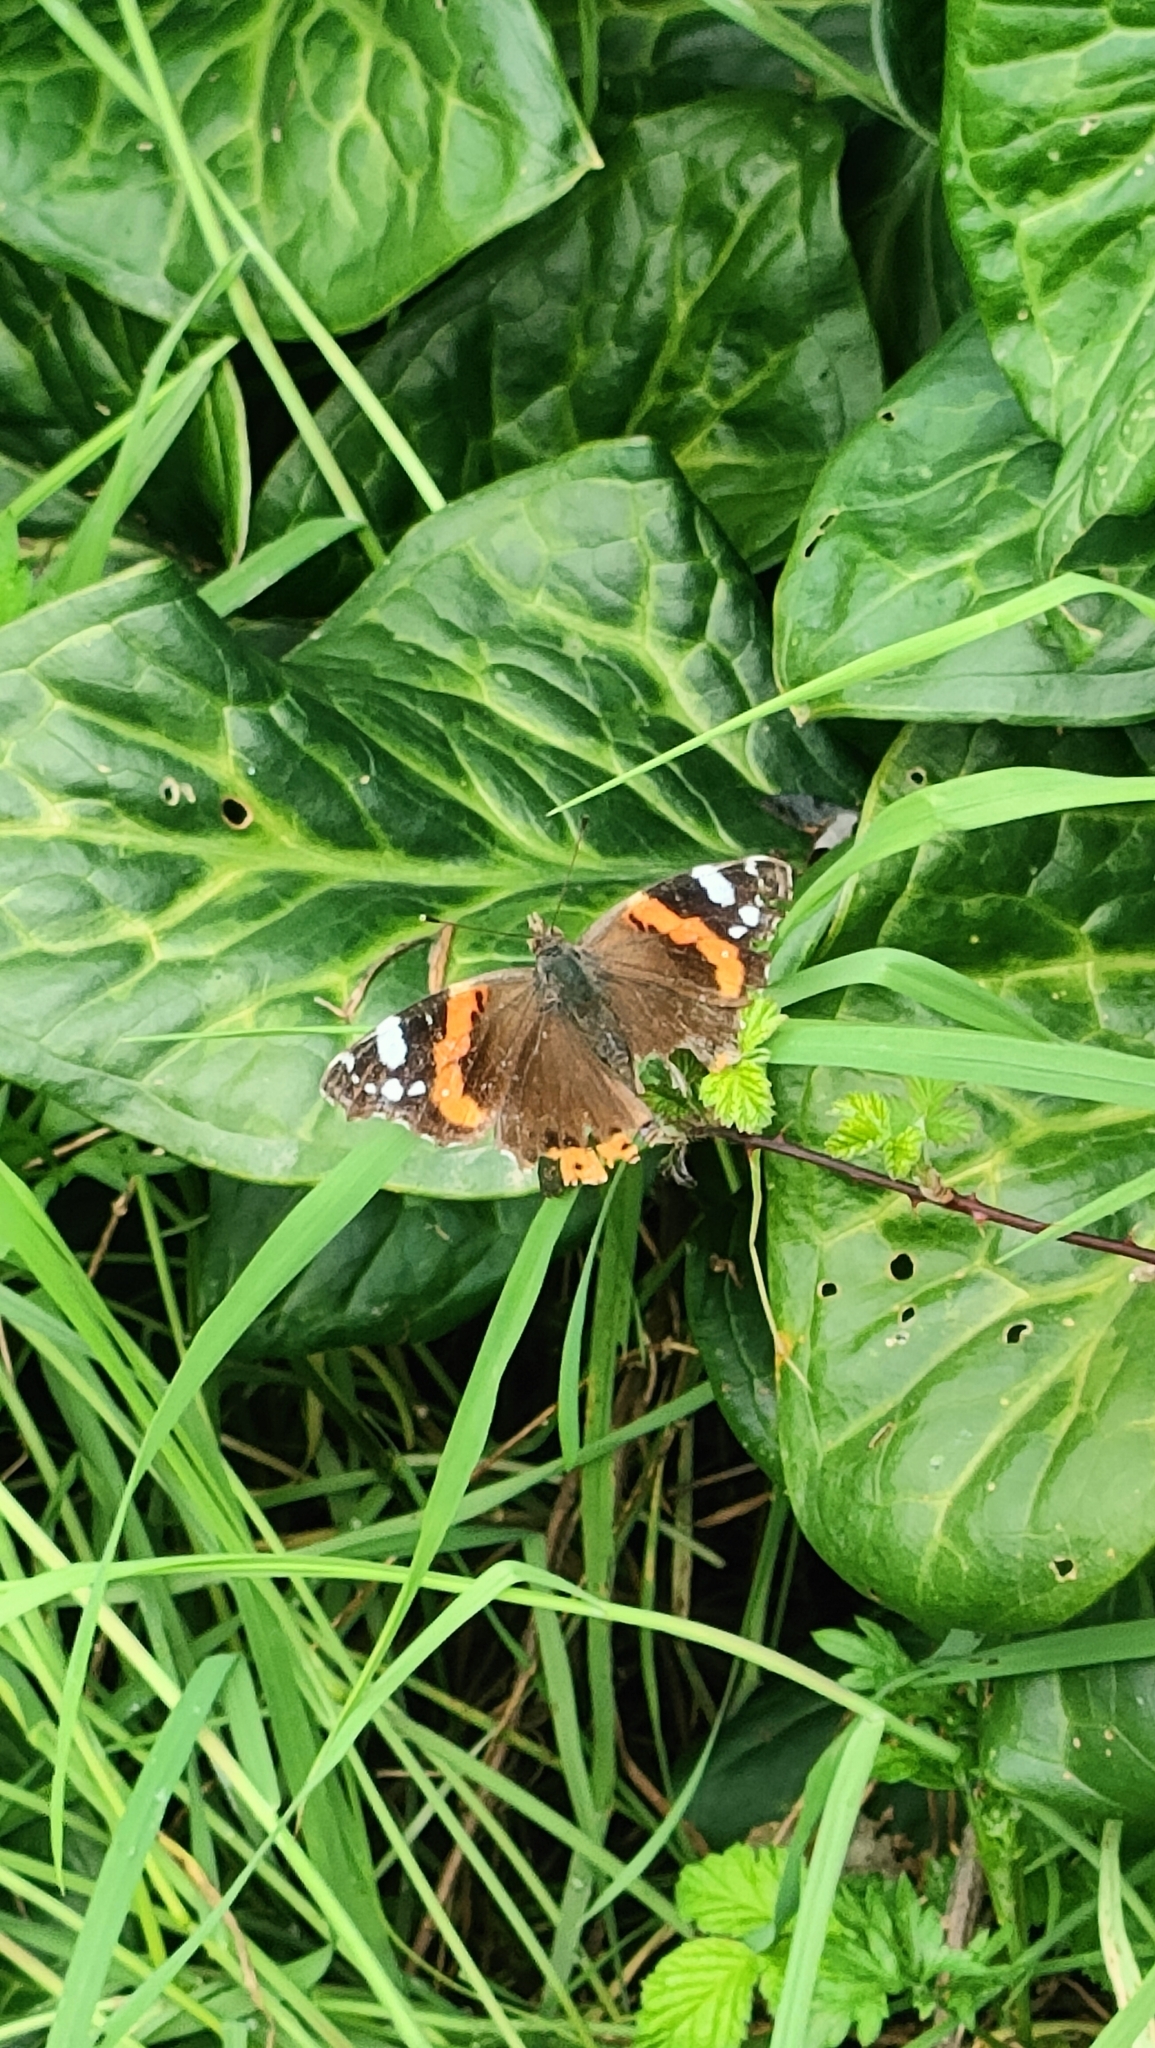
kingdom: Animalia
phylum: Arthropoda
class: Insecta
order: Lepidoptera
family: Nymphalidae
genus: Vanessa
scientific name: Vanessa atalanta
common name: Red admiral
